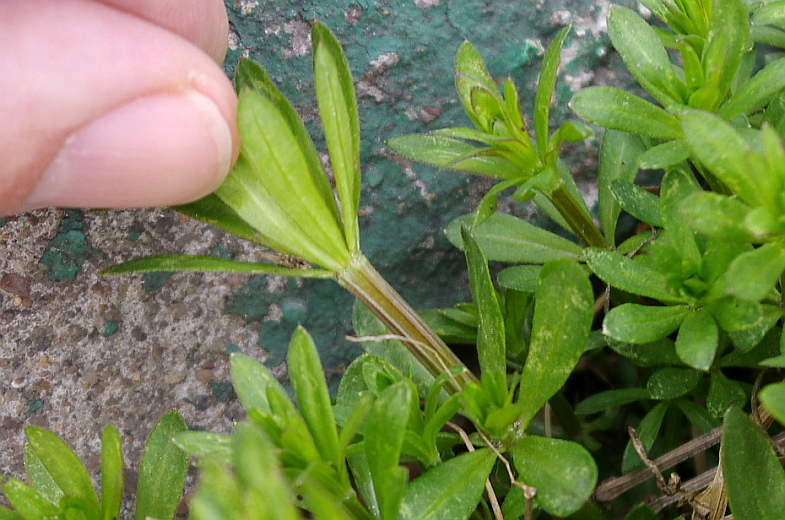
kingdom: Plantae
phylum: Tracheophyta
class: Magnoliopsida
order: Gentianales
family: Rubiaceae
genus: Galium
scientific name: Galium mollugo
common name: Hedge bedstraw
